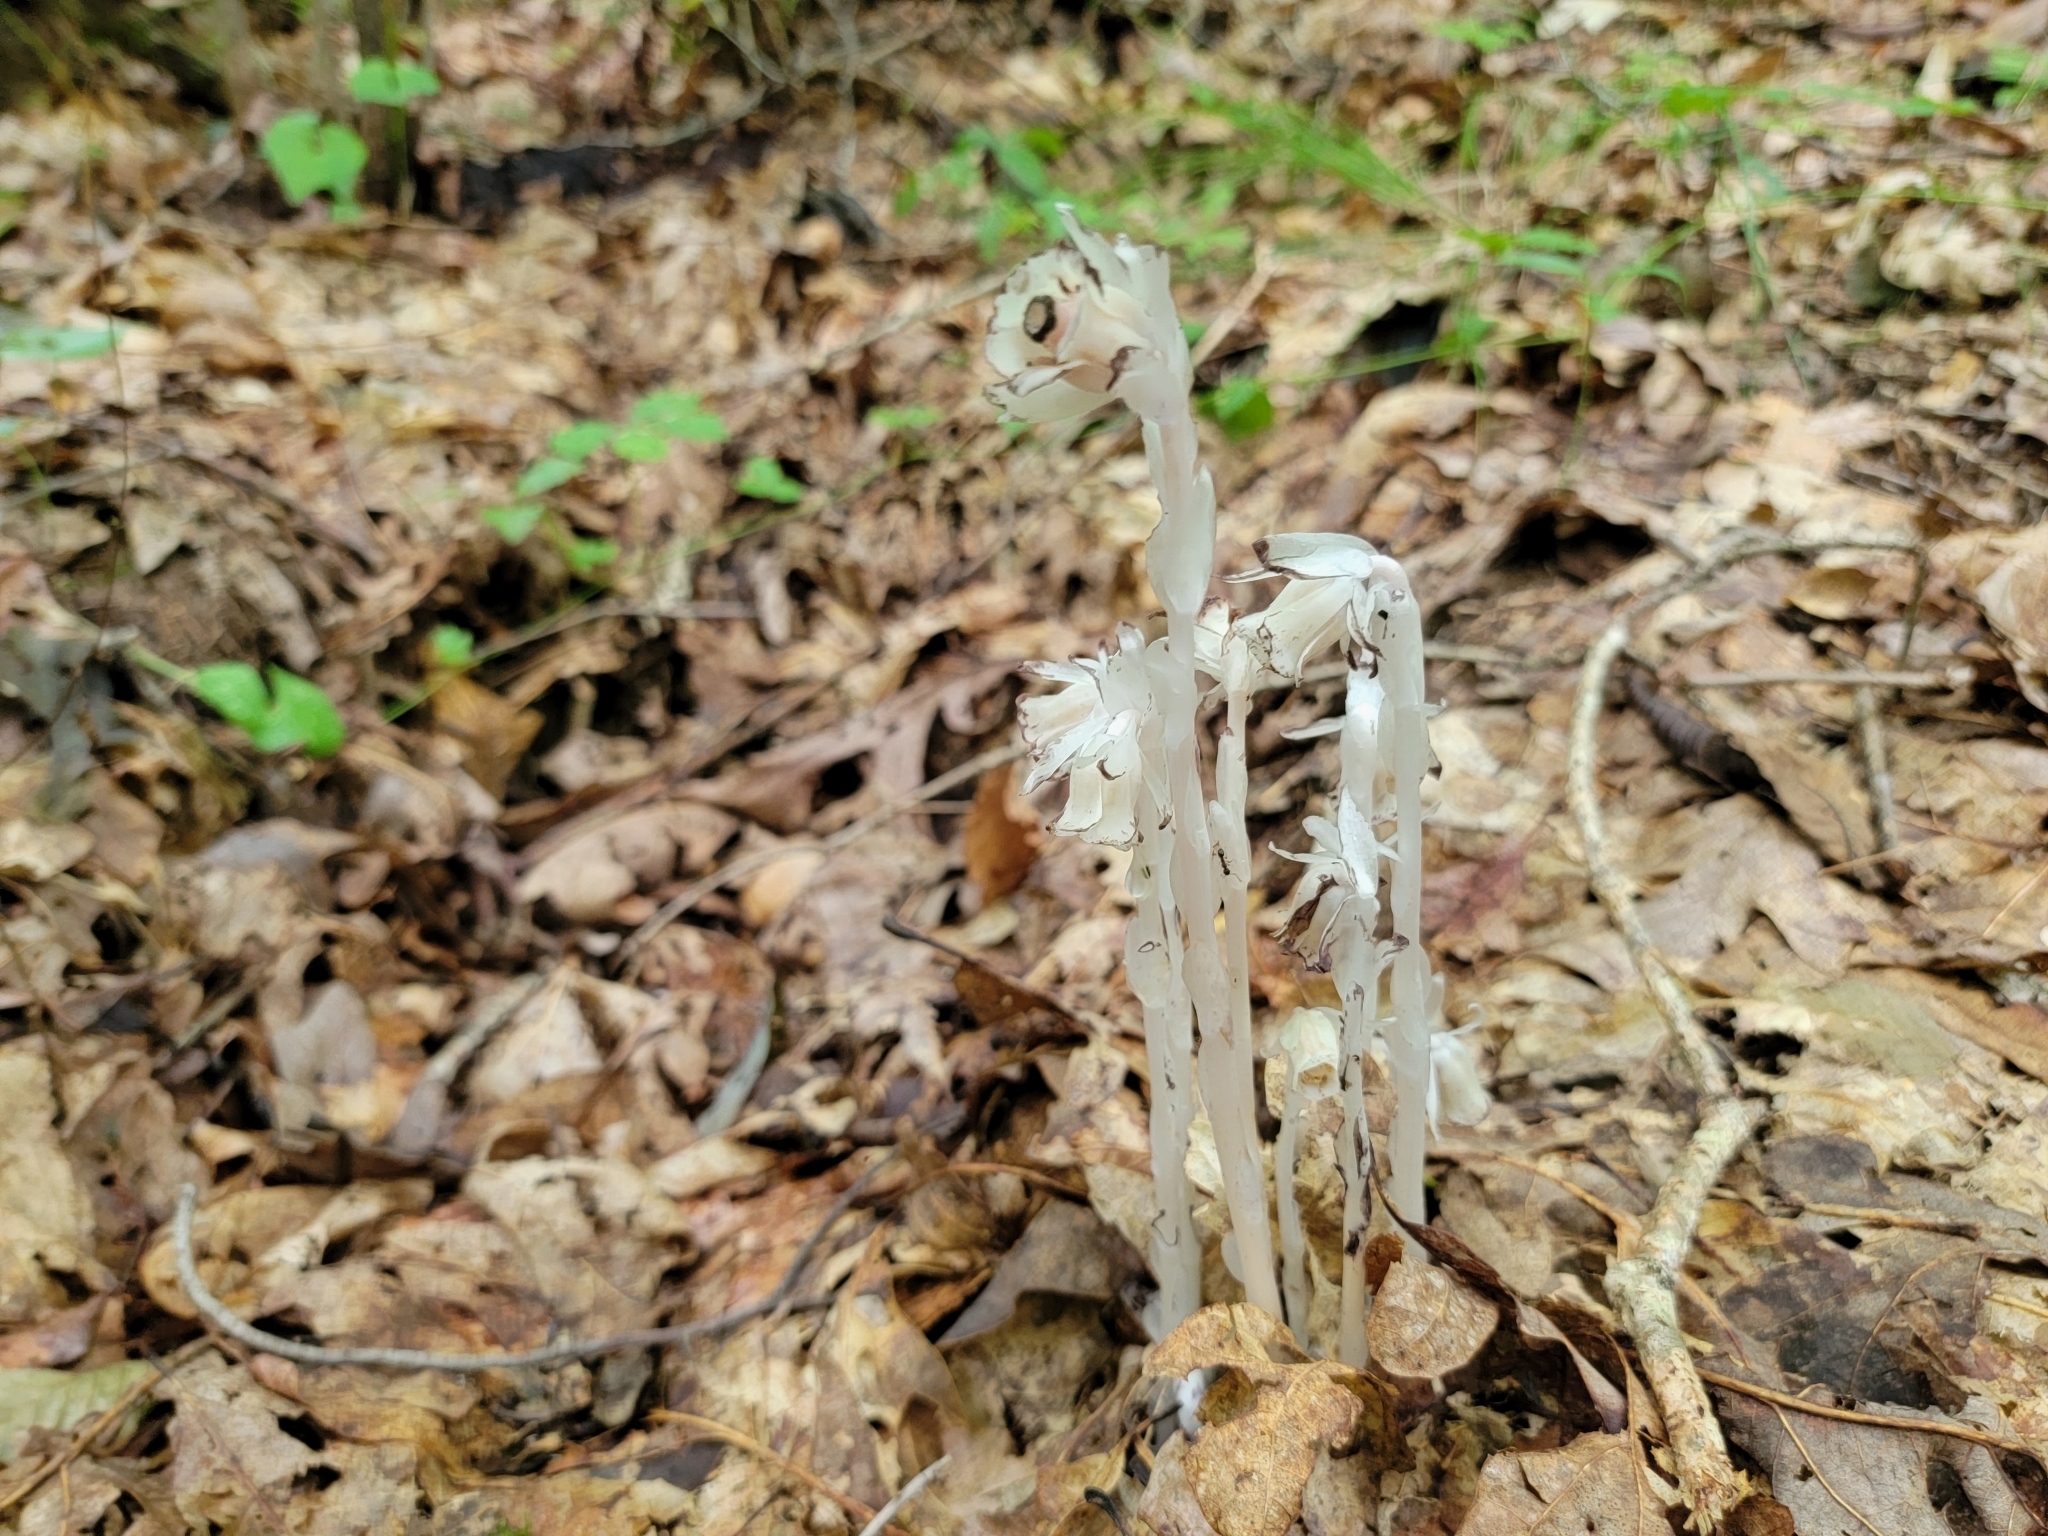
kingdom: Plantae
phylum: Tracheophyta
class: Magnoliopsida
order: Ericales
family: Ericaceae
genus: Monotropa
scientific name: Monotropa uniflora
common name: Convulsion root
